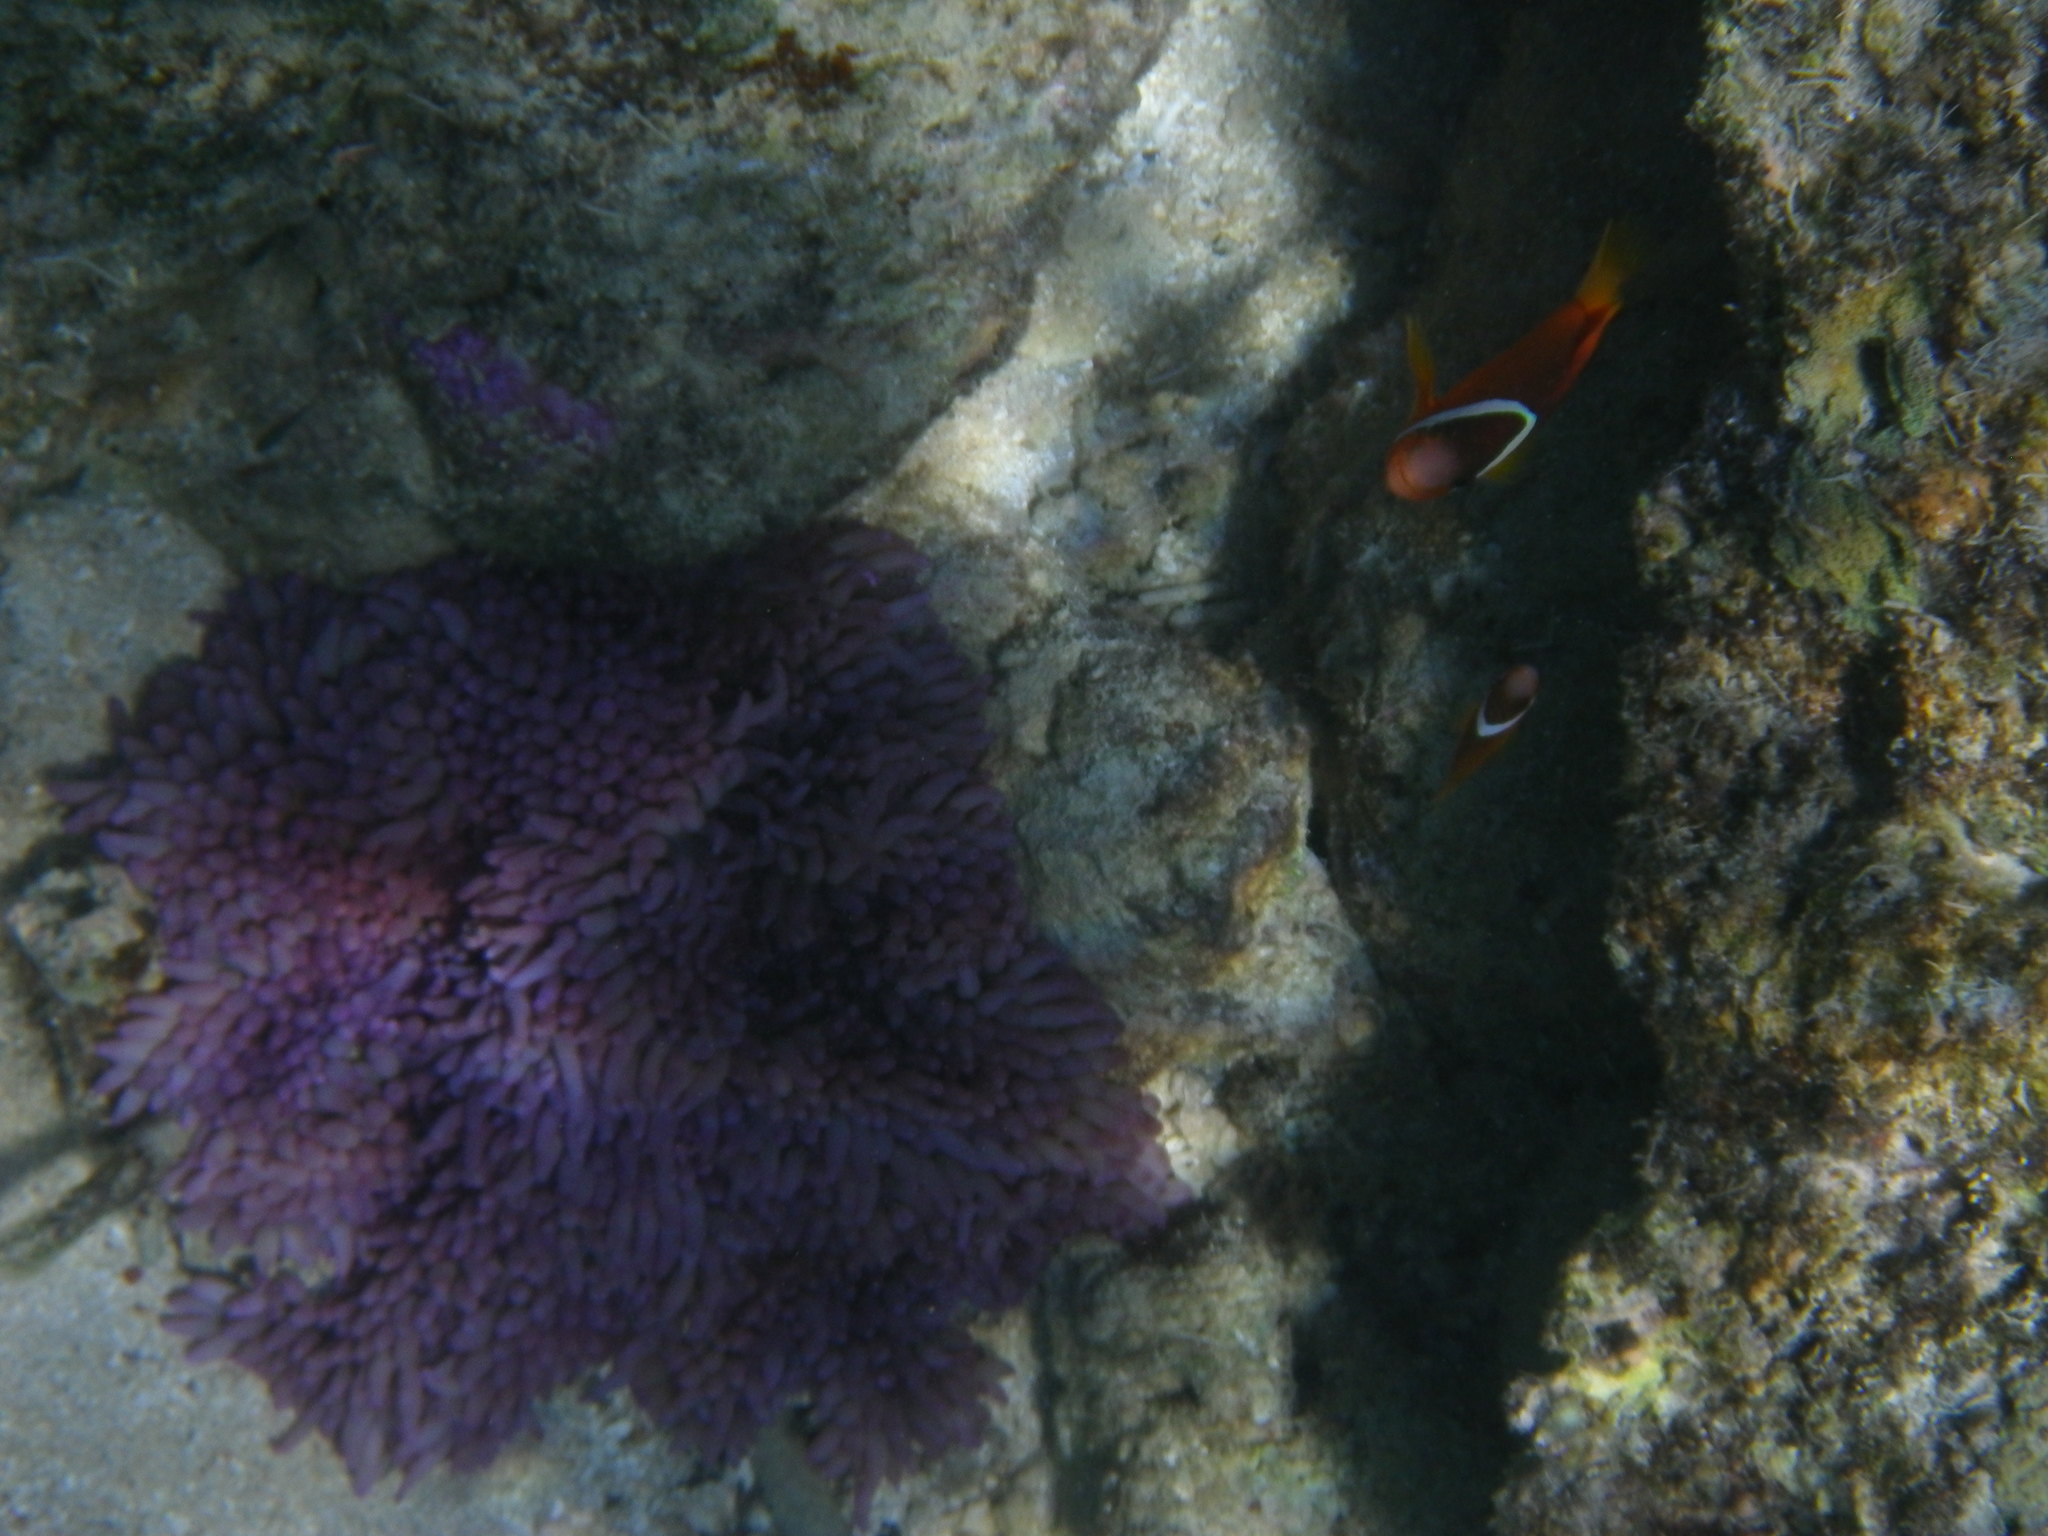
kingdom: Animalia
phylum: Chordata
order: Perciformes
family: Pomacentridae
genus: Amphiprion
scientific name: Amphiprion barberi
